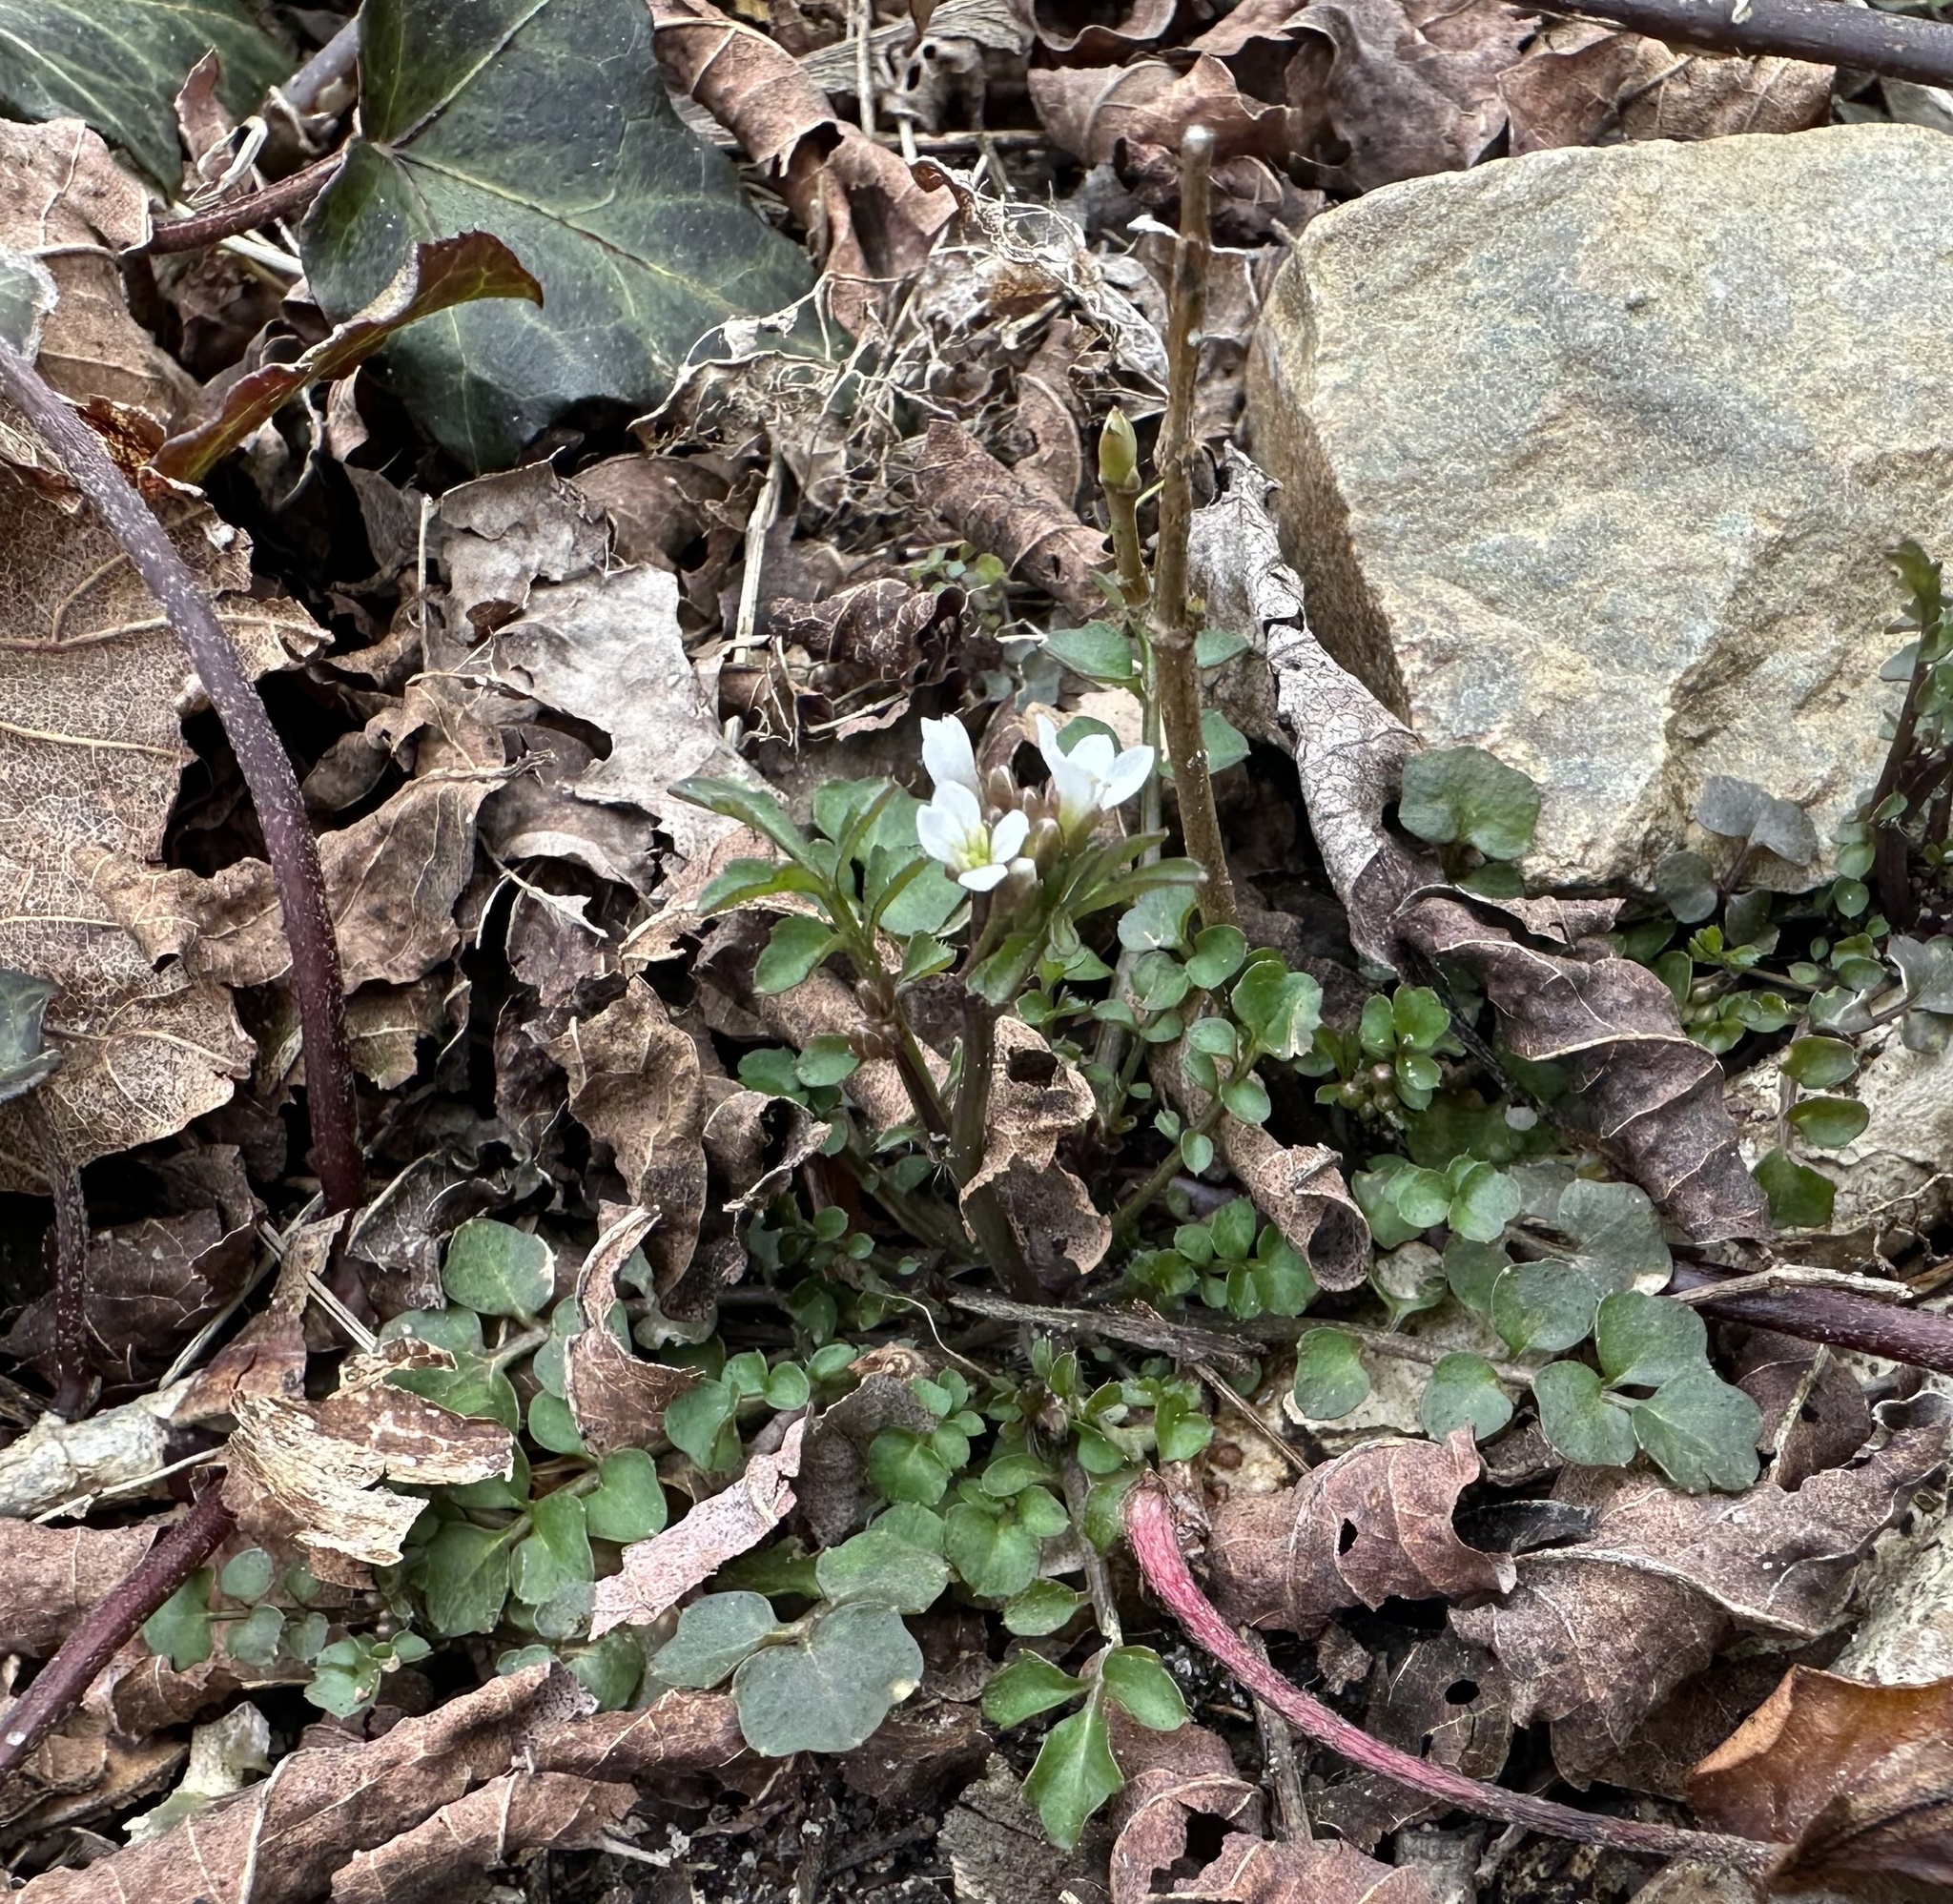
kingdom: Plantae
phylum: Tracheophyta
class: Magnoliopsida
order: Brassicales
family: Brassicaceae
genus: Cardamine
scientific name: Cardamine hirsuta
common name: Hairy bittercress
